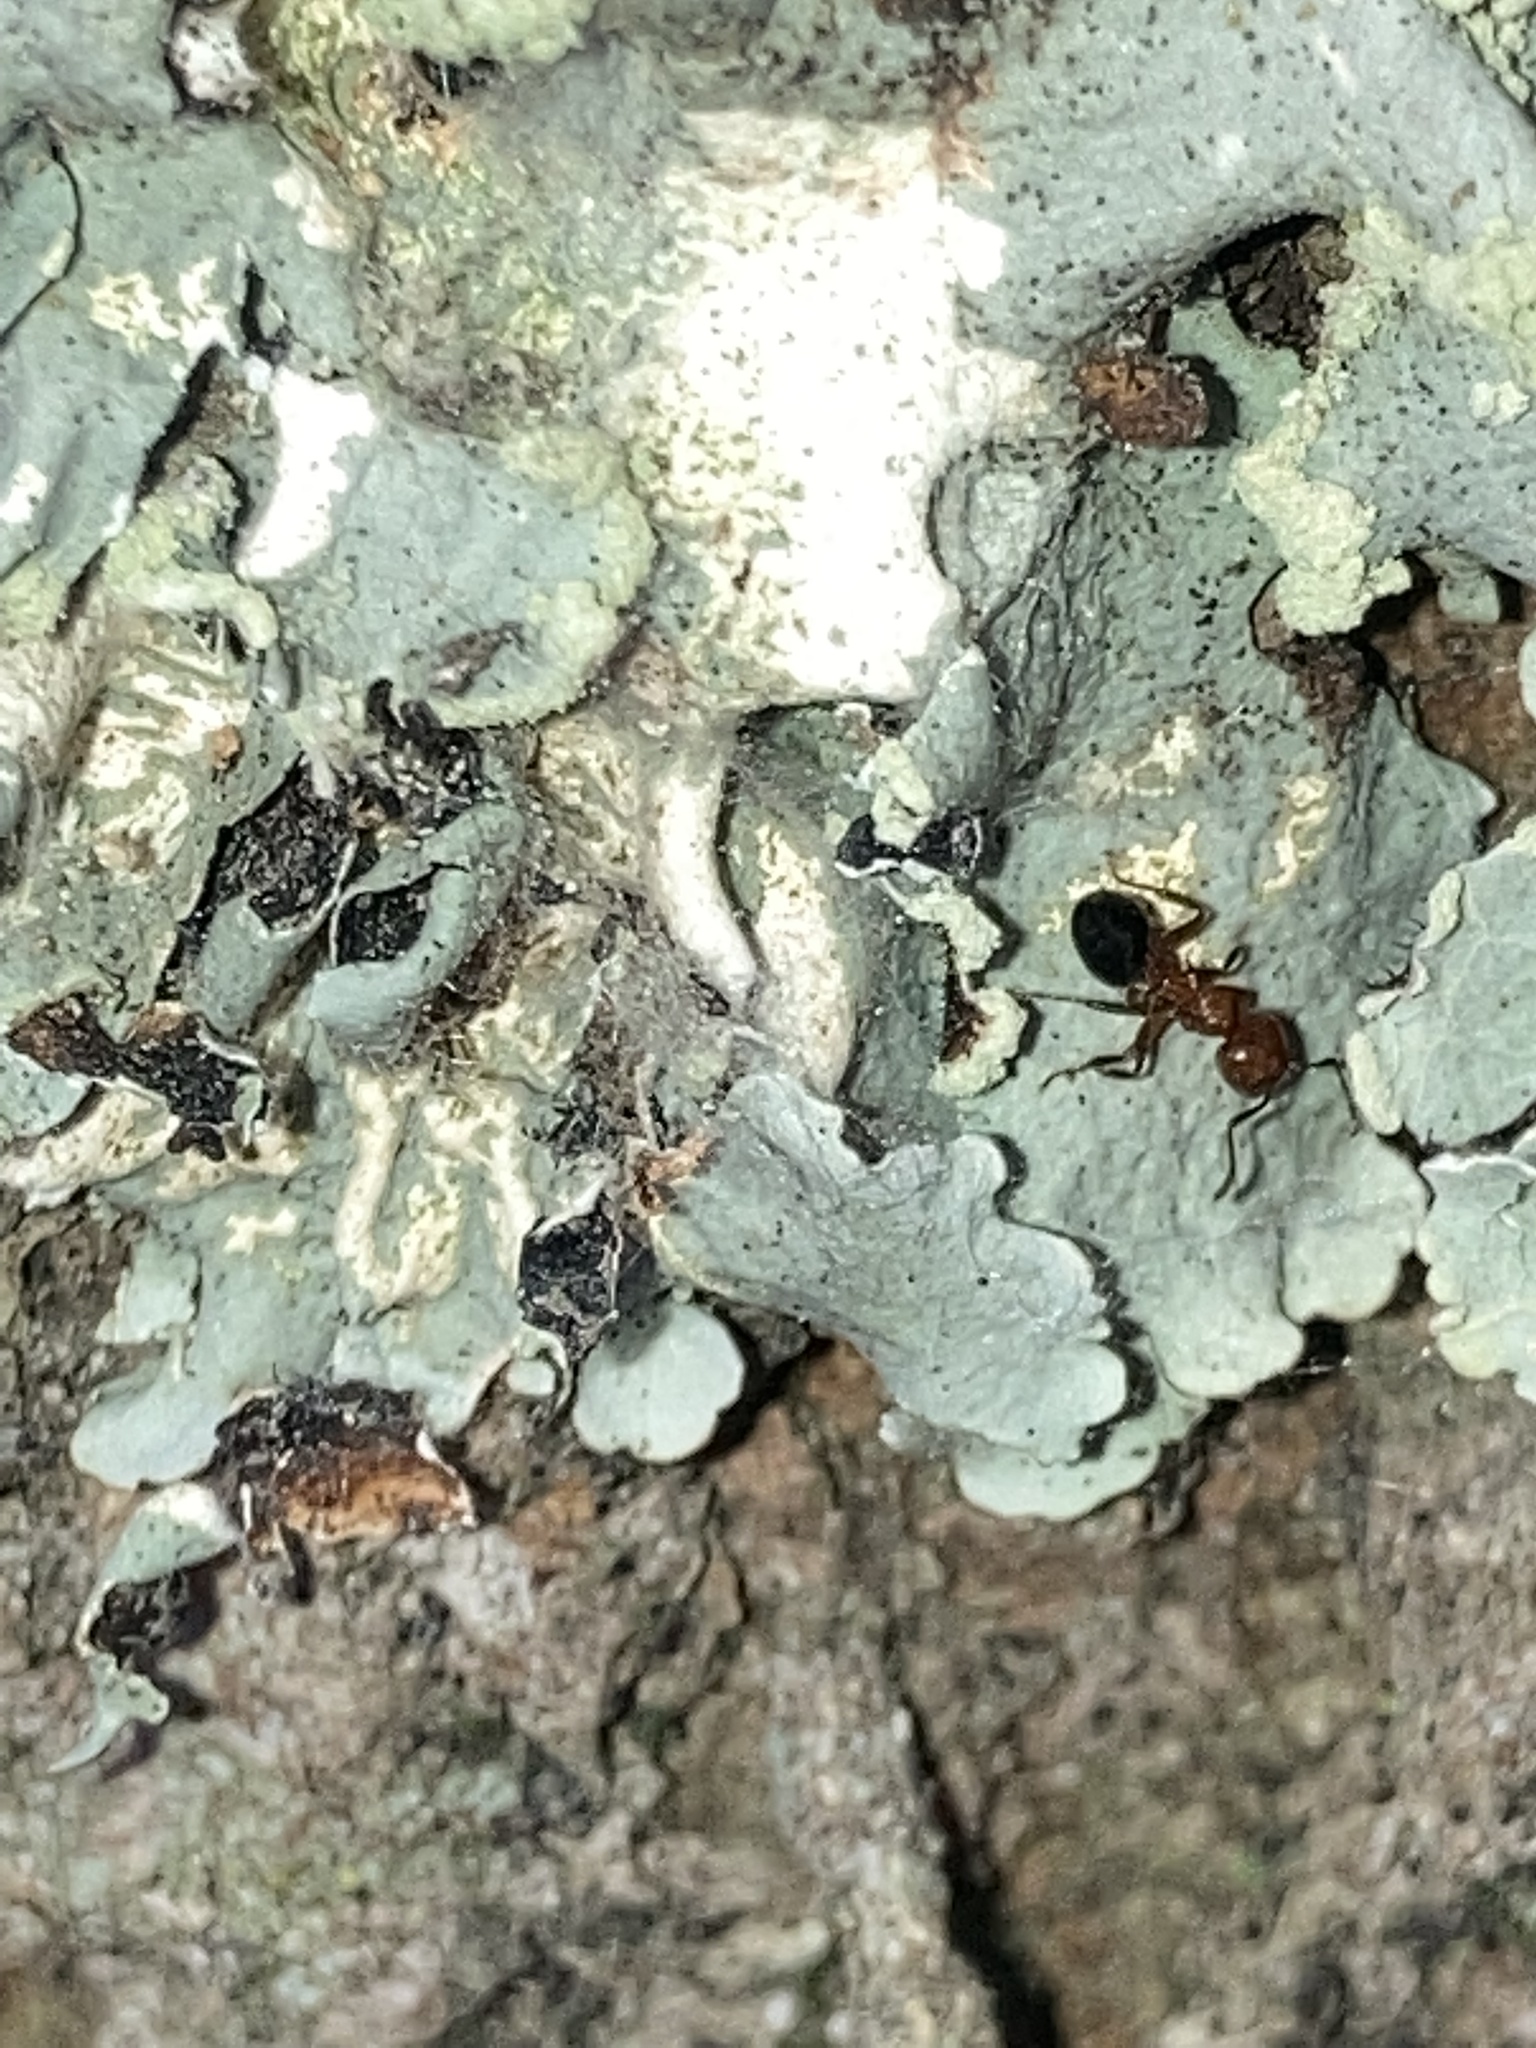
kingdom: Animalia
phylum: Arthropoda
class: Insecta
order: Hymenoptera
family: Formicidae
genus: Crematogaster
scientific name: Crematogaster laeviuscula
